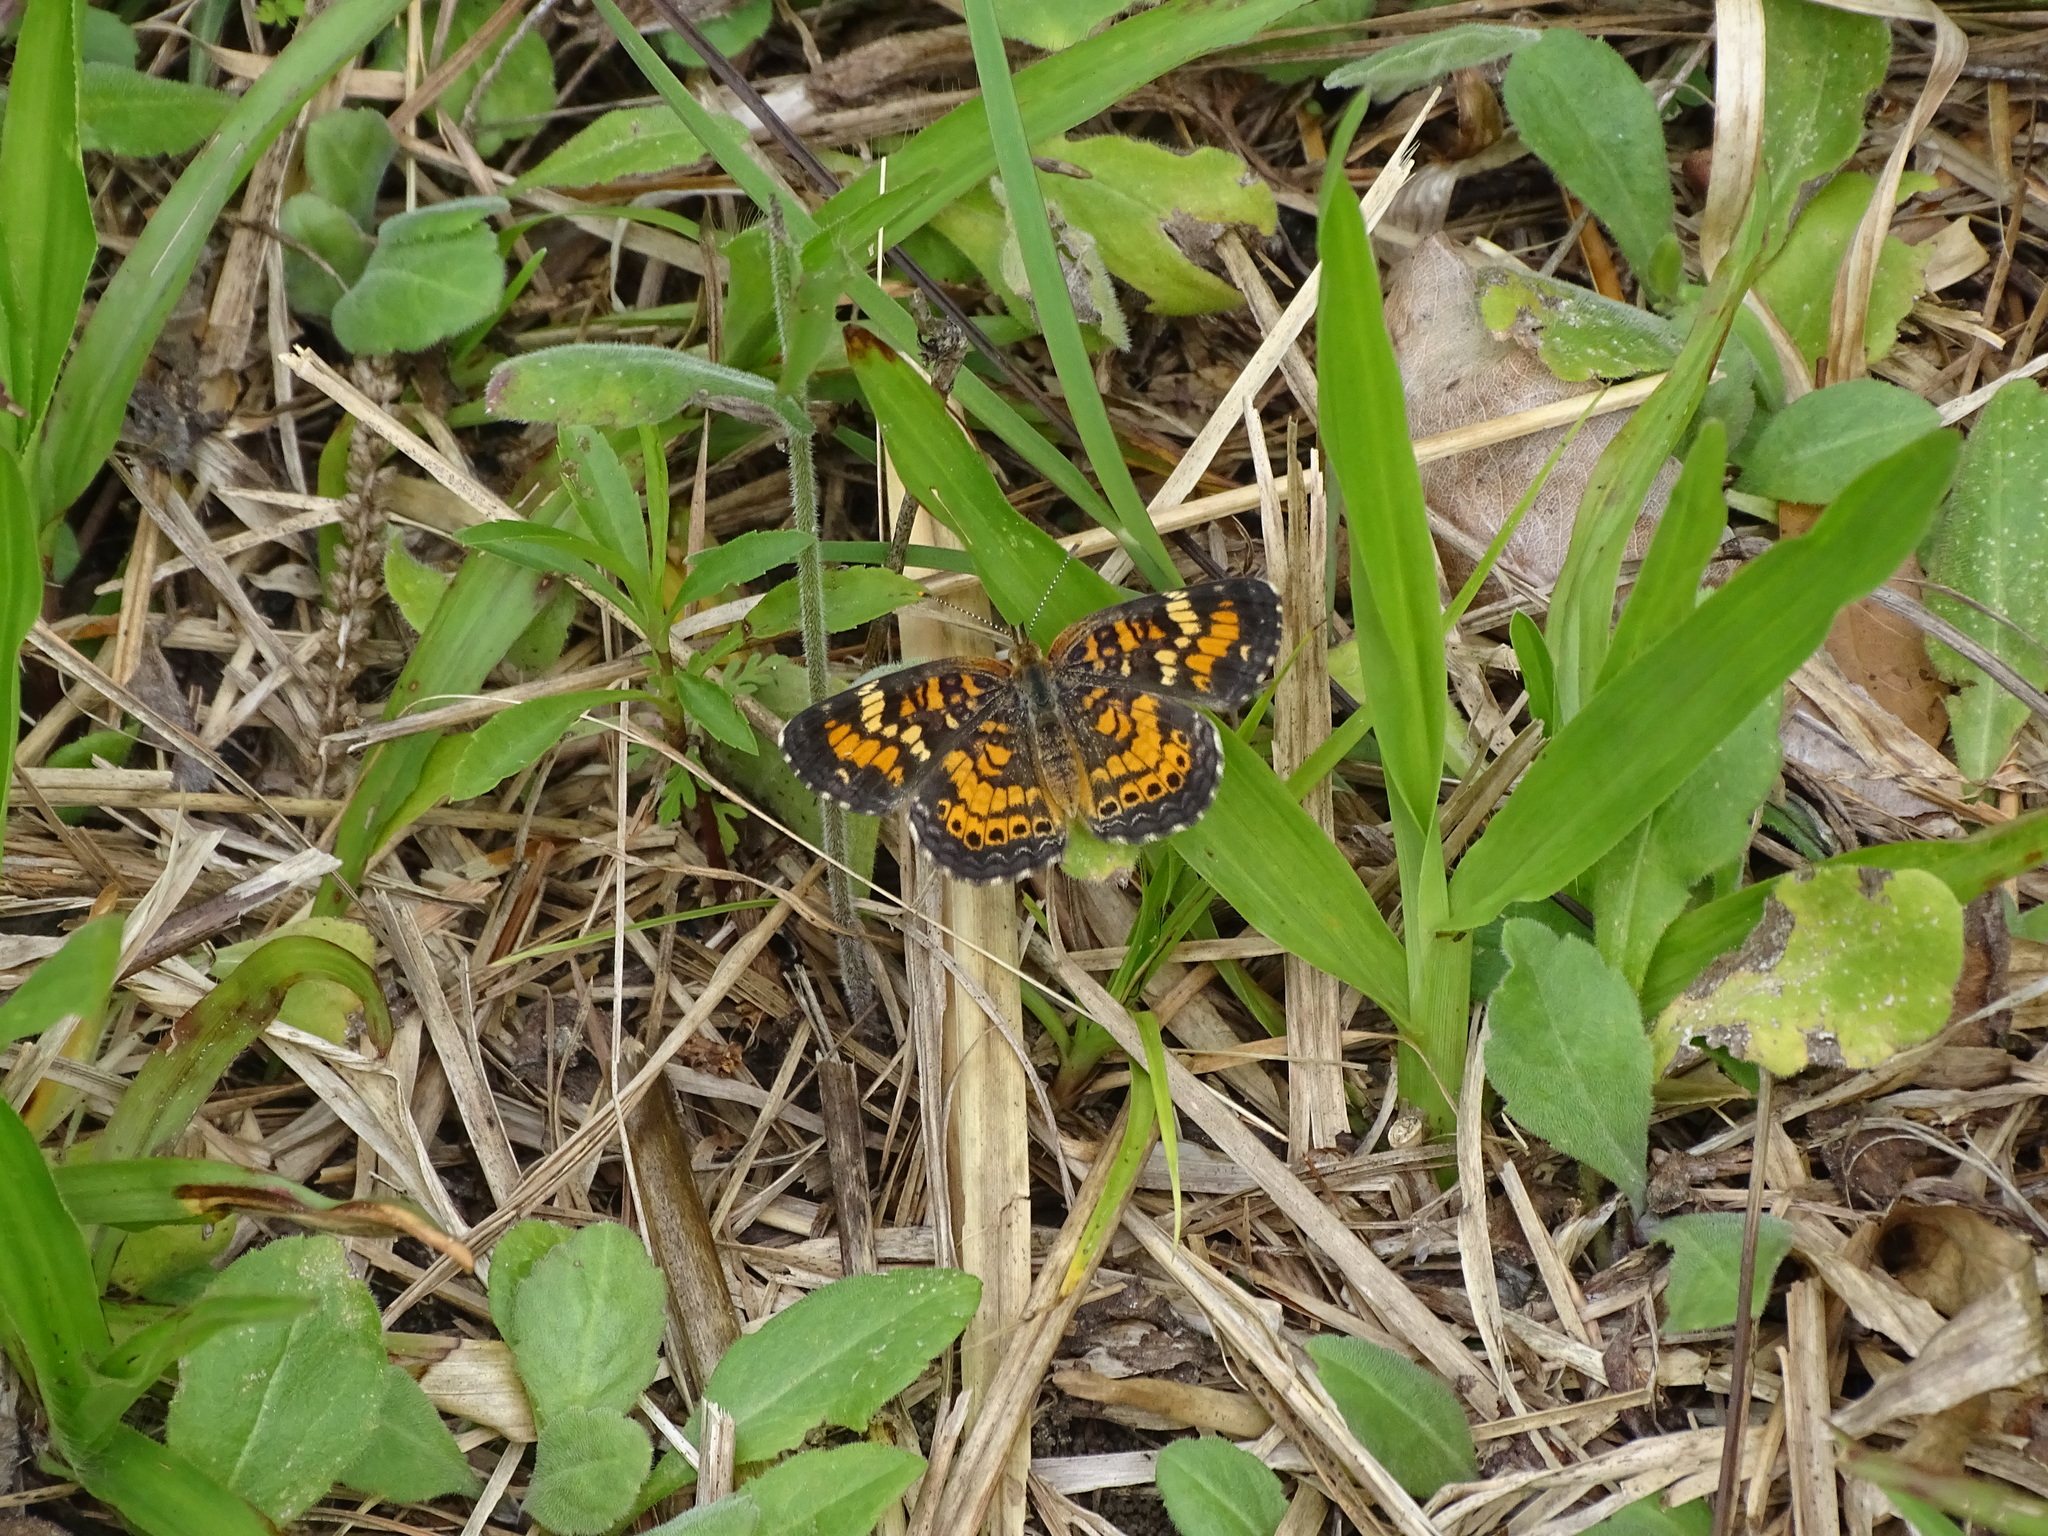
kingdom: Animalia
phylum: Arthropoda
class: Insecta
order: Lepidoptera
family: Nymphalidae
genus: Phyciodes
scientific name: Phyciodes phaon
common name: Phaon crescent
